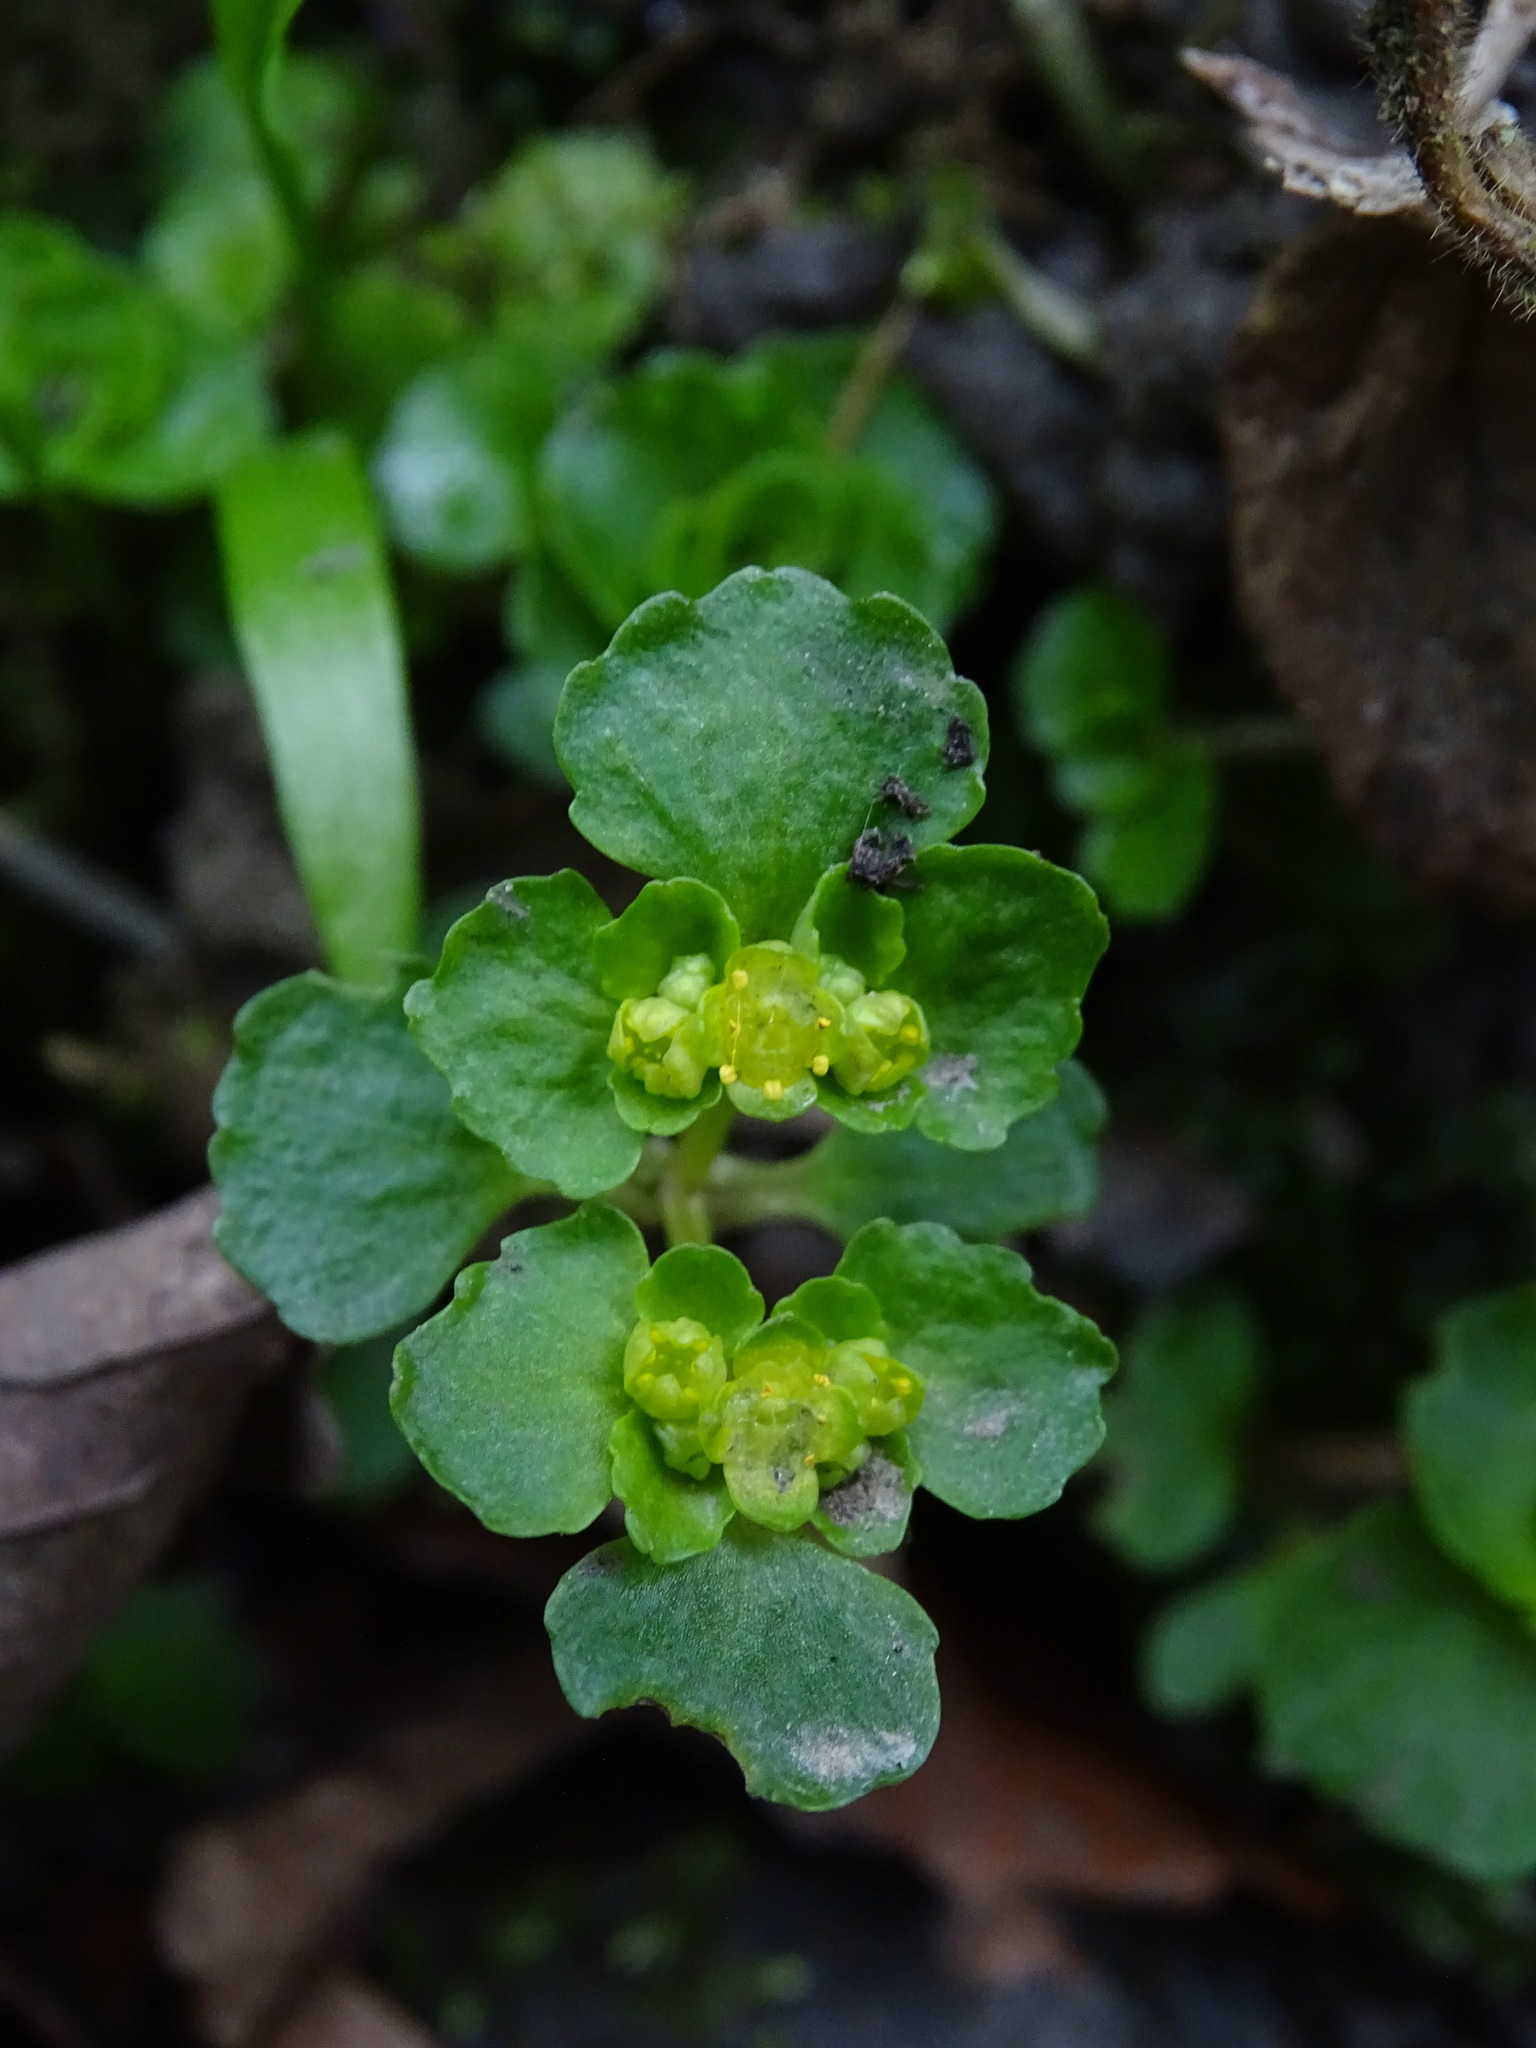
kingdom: Plantae
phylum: Tracheophyta
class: Magnoliopsida
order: Saxifragales
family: Saxifragaceae
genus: Chrysosplenium
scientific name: Chrysosplenium oppositifolium
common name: Opposite-leaved golden-saxifrage
